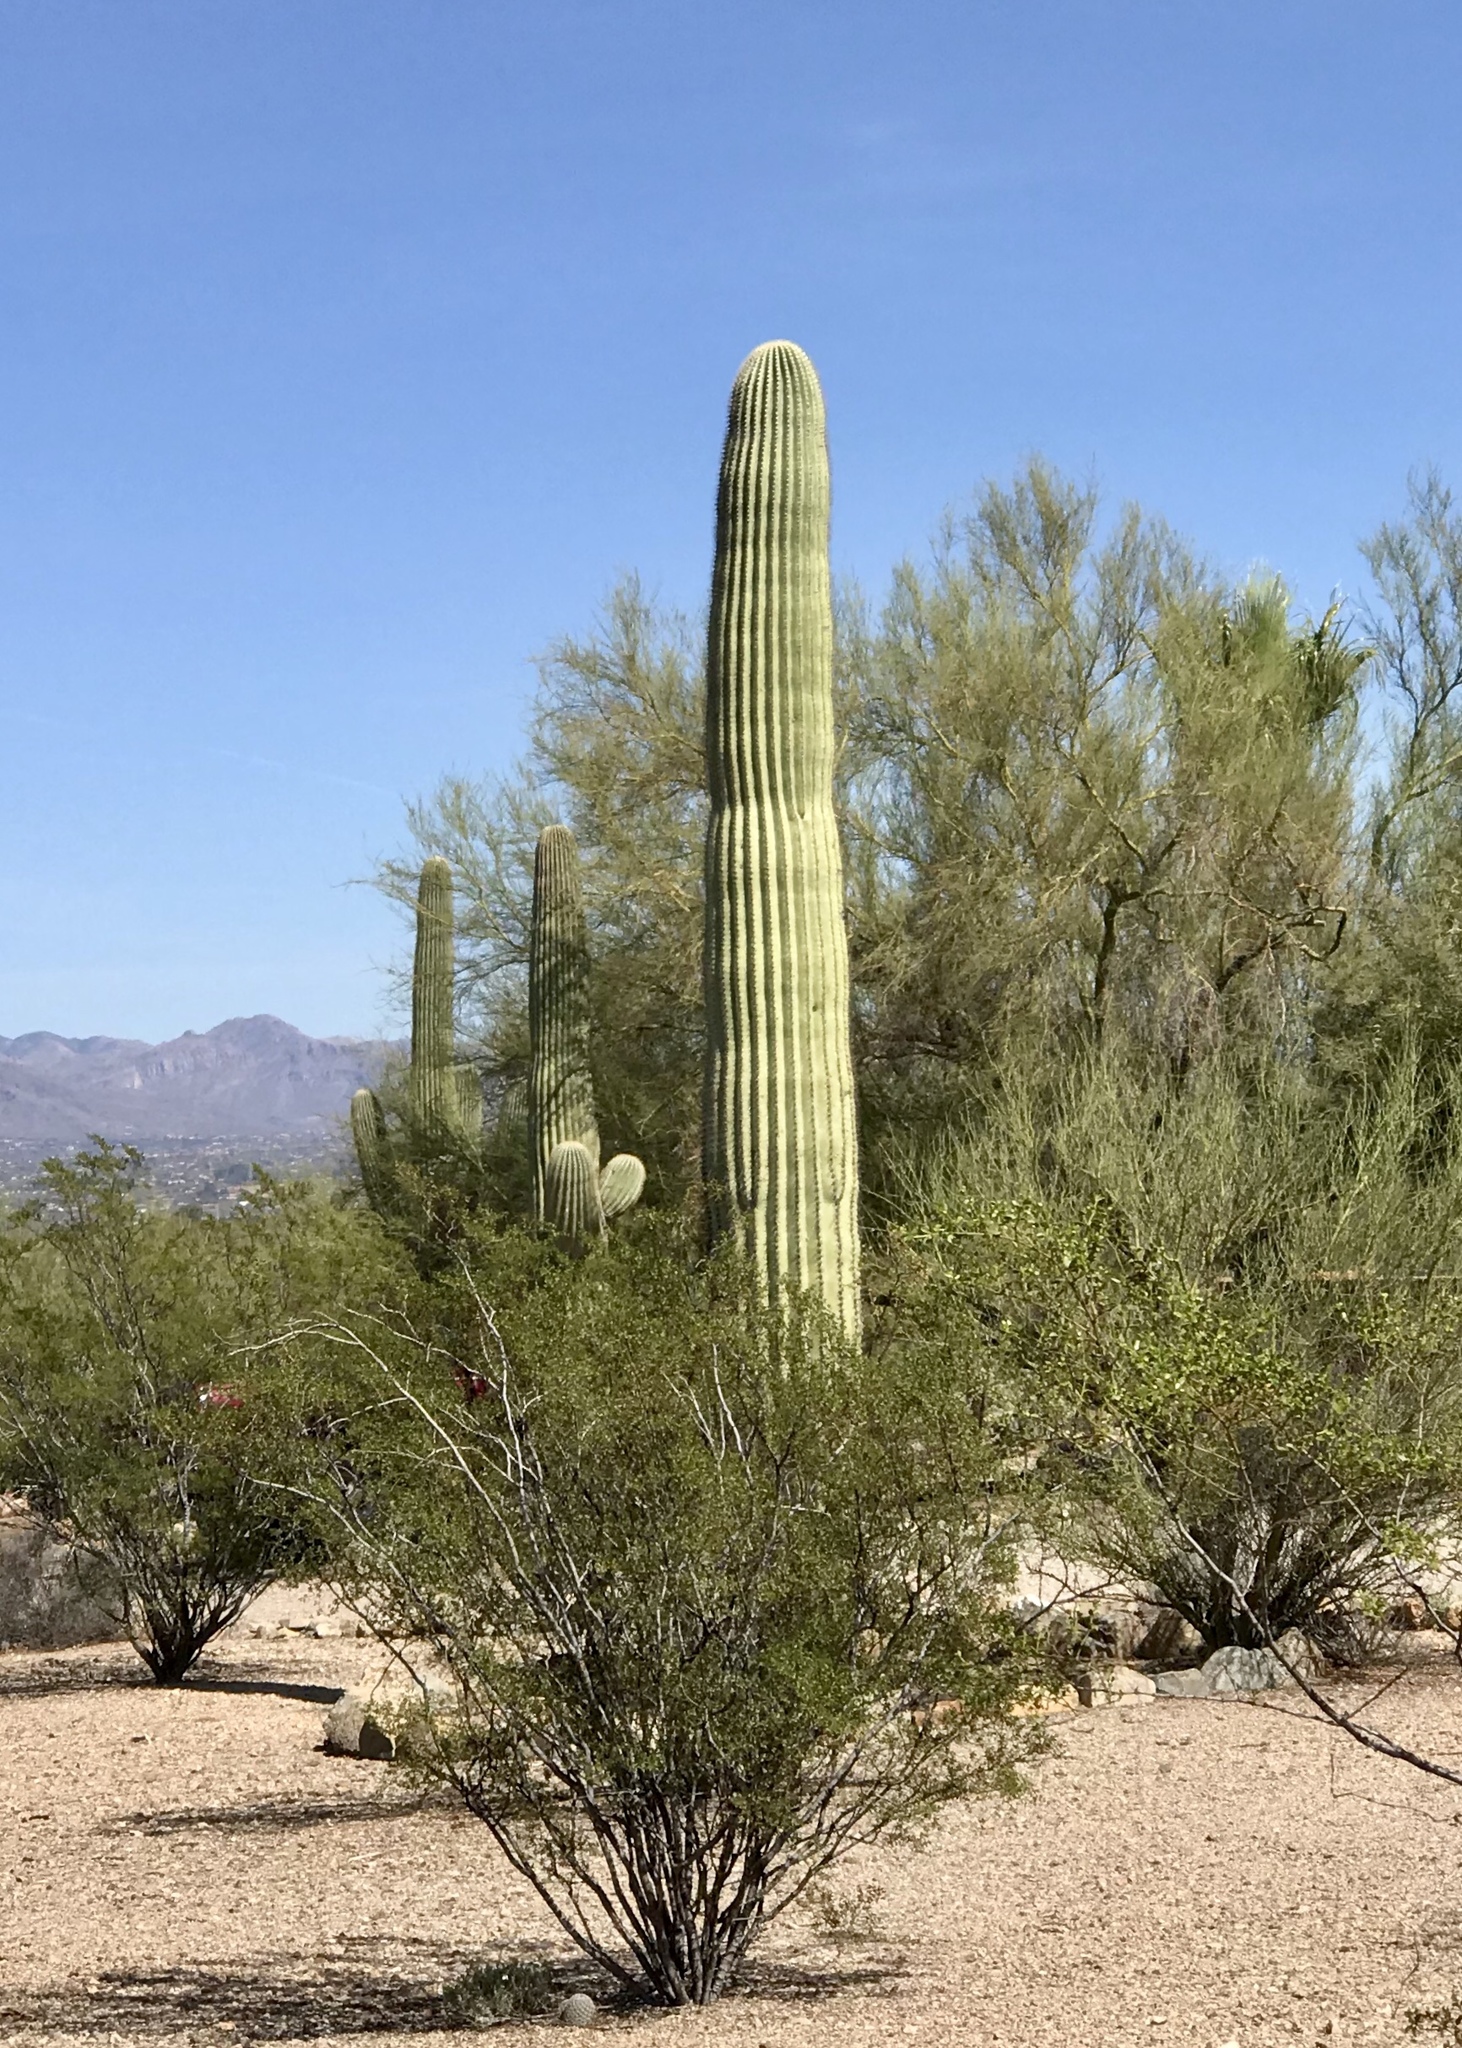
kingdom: Plantae
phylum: Tracheophyta
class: Magnoliopsida
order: Caryophyllales
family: Cactaceae
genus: Carnegiea
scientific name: Carnegiea gigantea
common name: Saguaro
